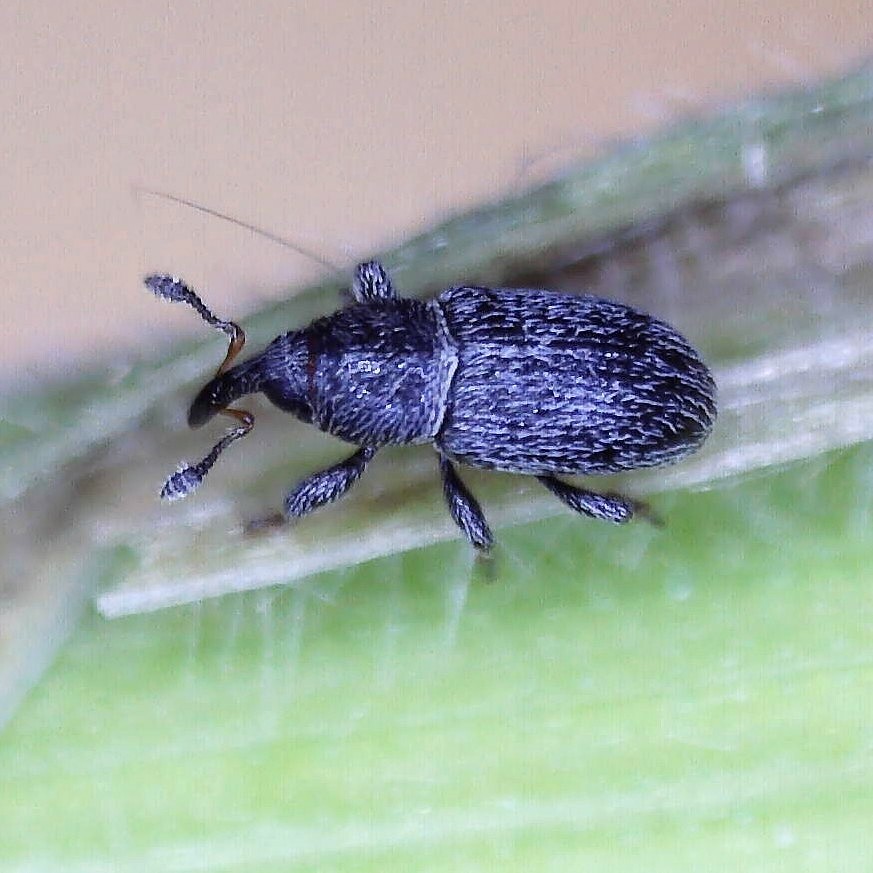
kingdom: Animalia
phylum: Arthropoda
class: Insecta
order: Coleoptera
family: Curculionidae
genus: Tychius
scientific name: Tychius pusillus
